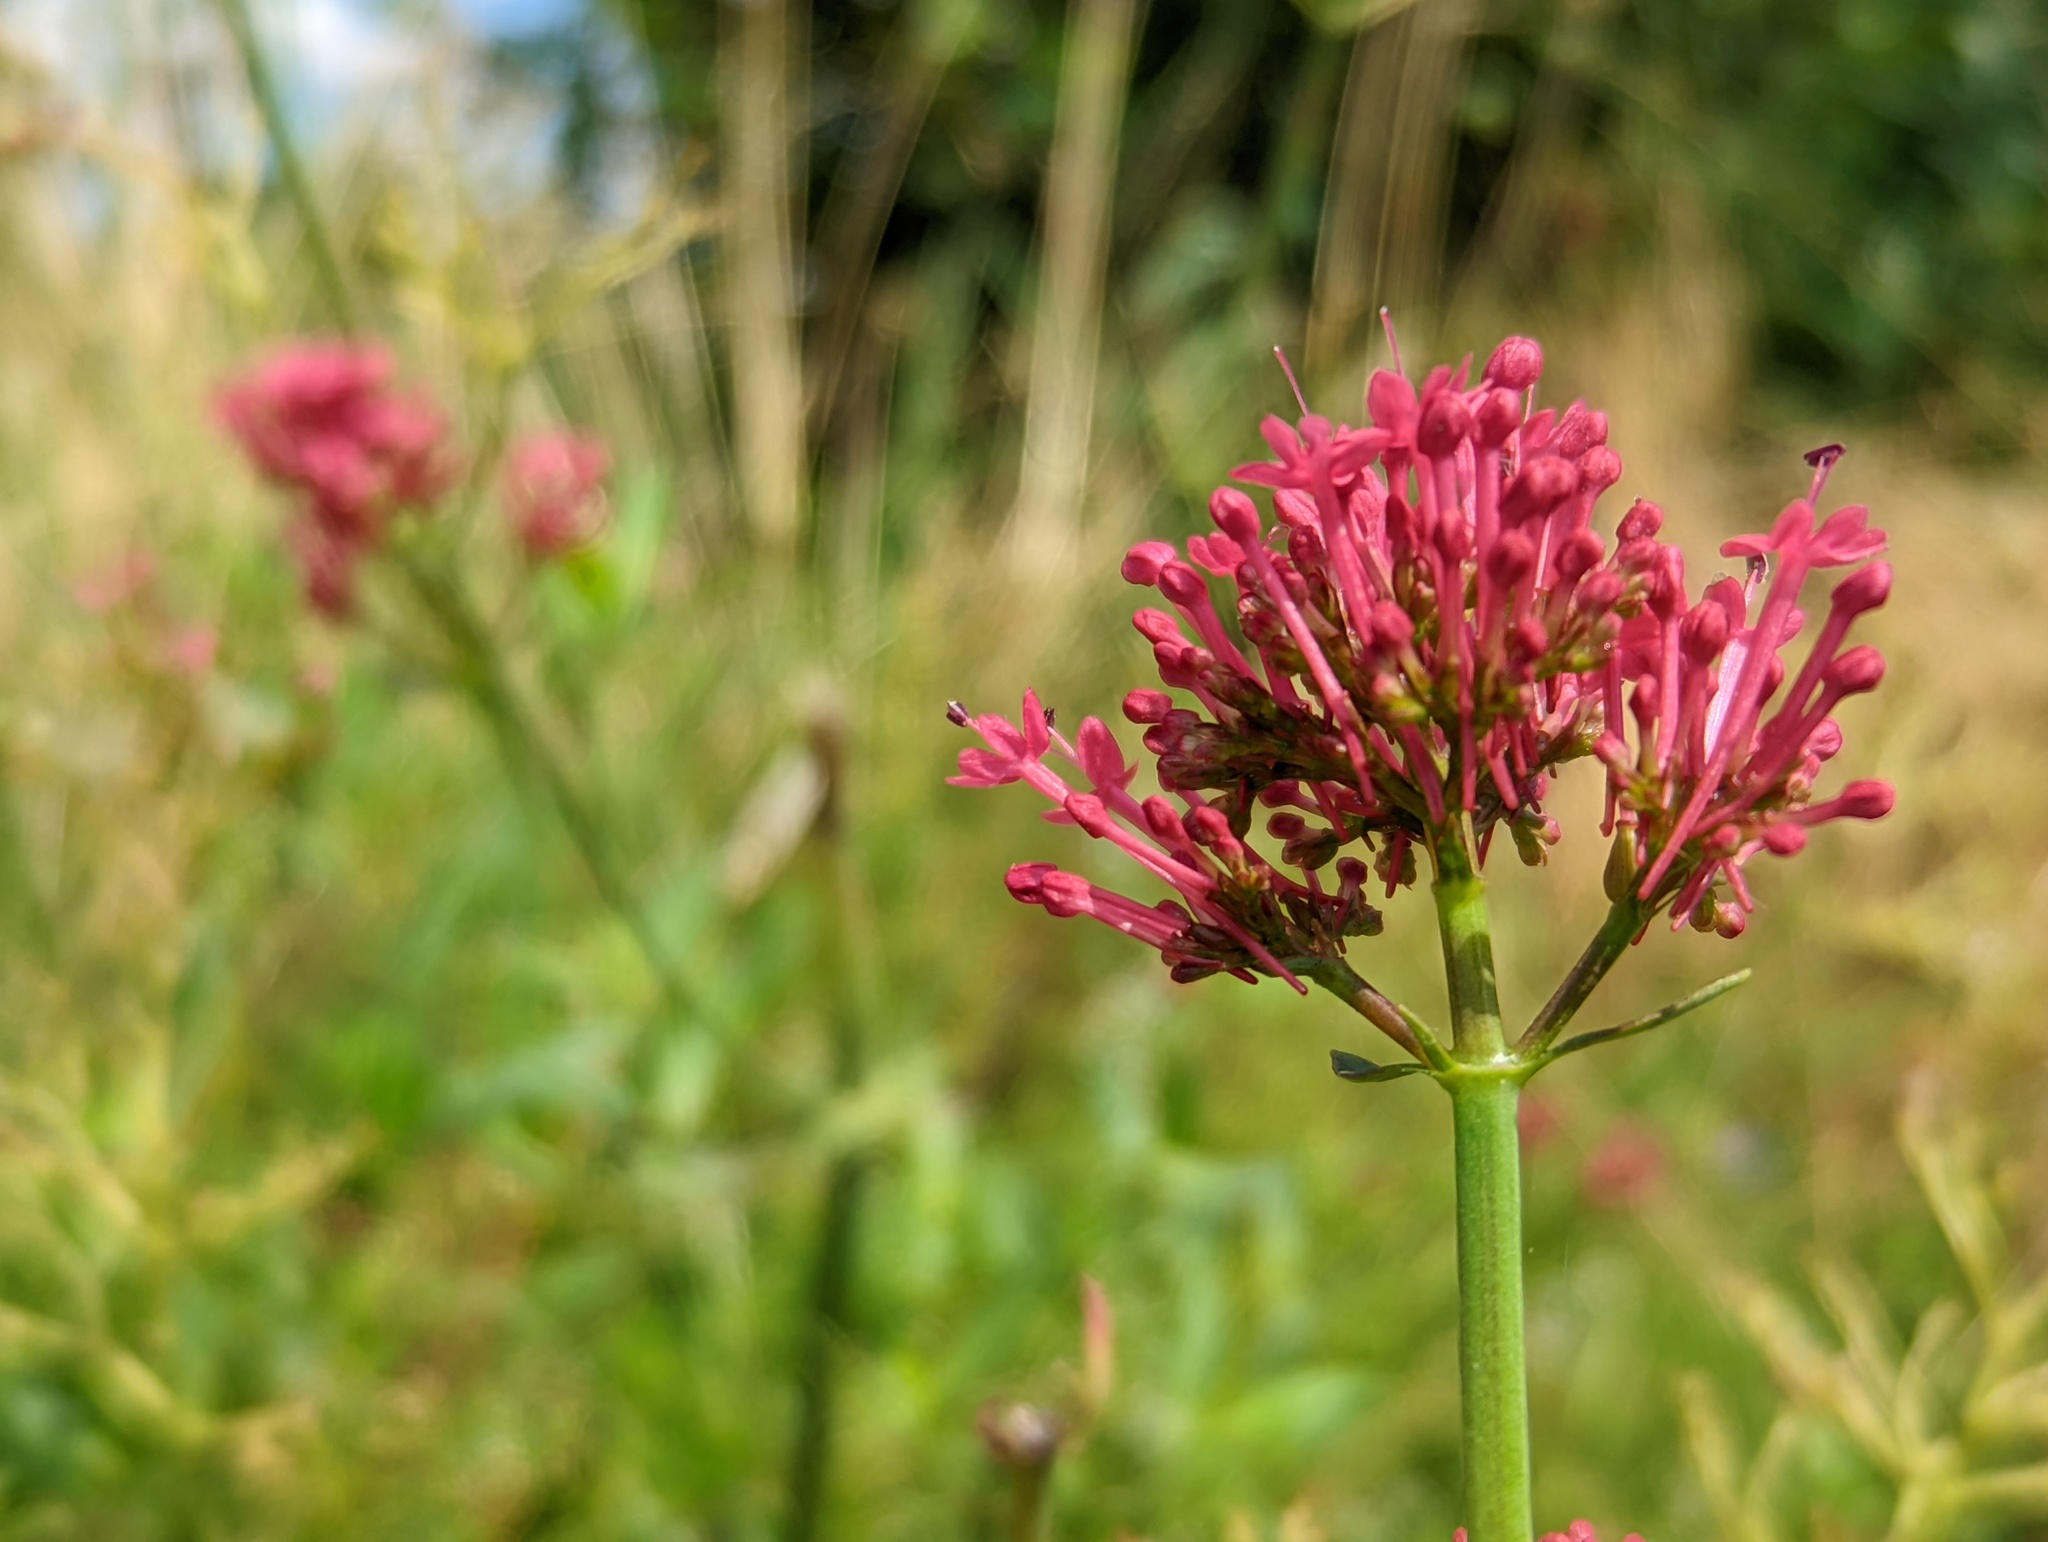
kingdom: Plantae
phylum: Tracheophyta
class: Magnoliopsida
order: Dipsacales
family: Caprifoliaceae
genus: Centranthus
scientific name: Centranthus ruber
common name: Red valerian
